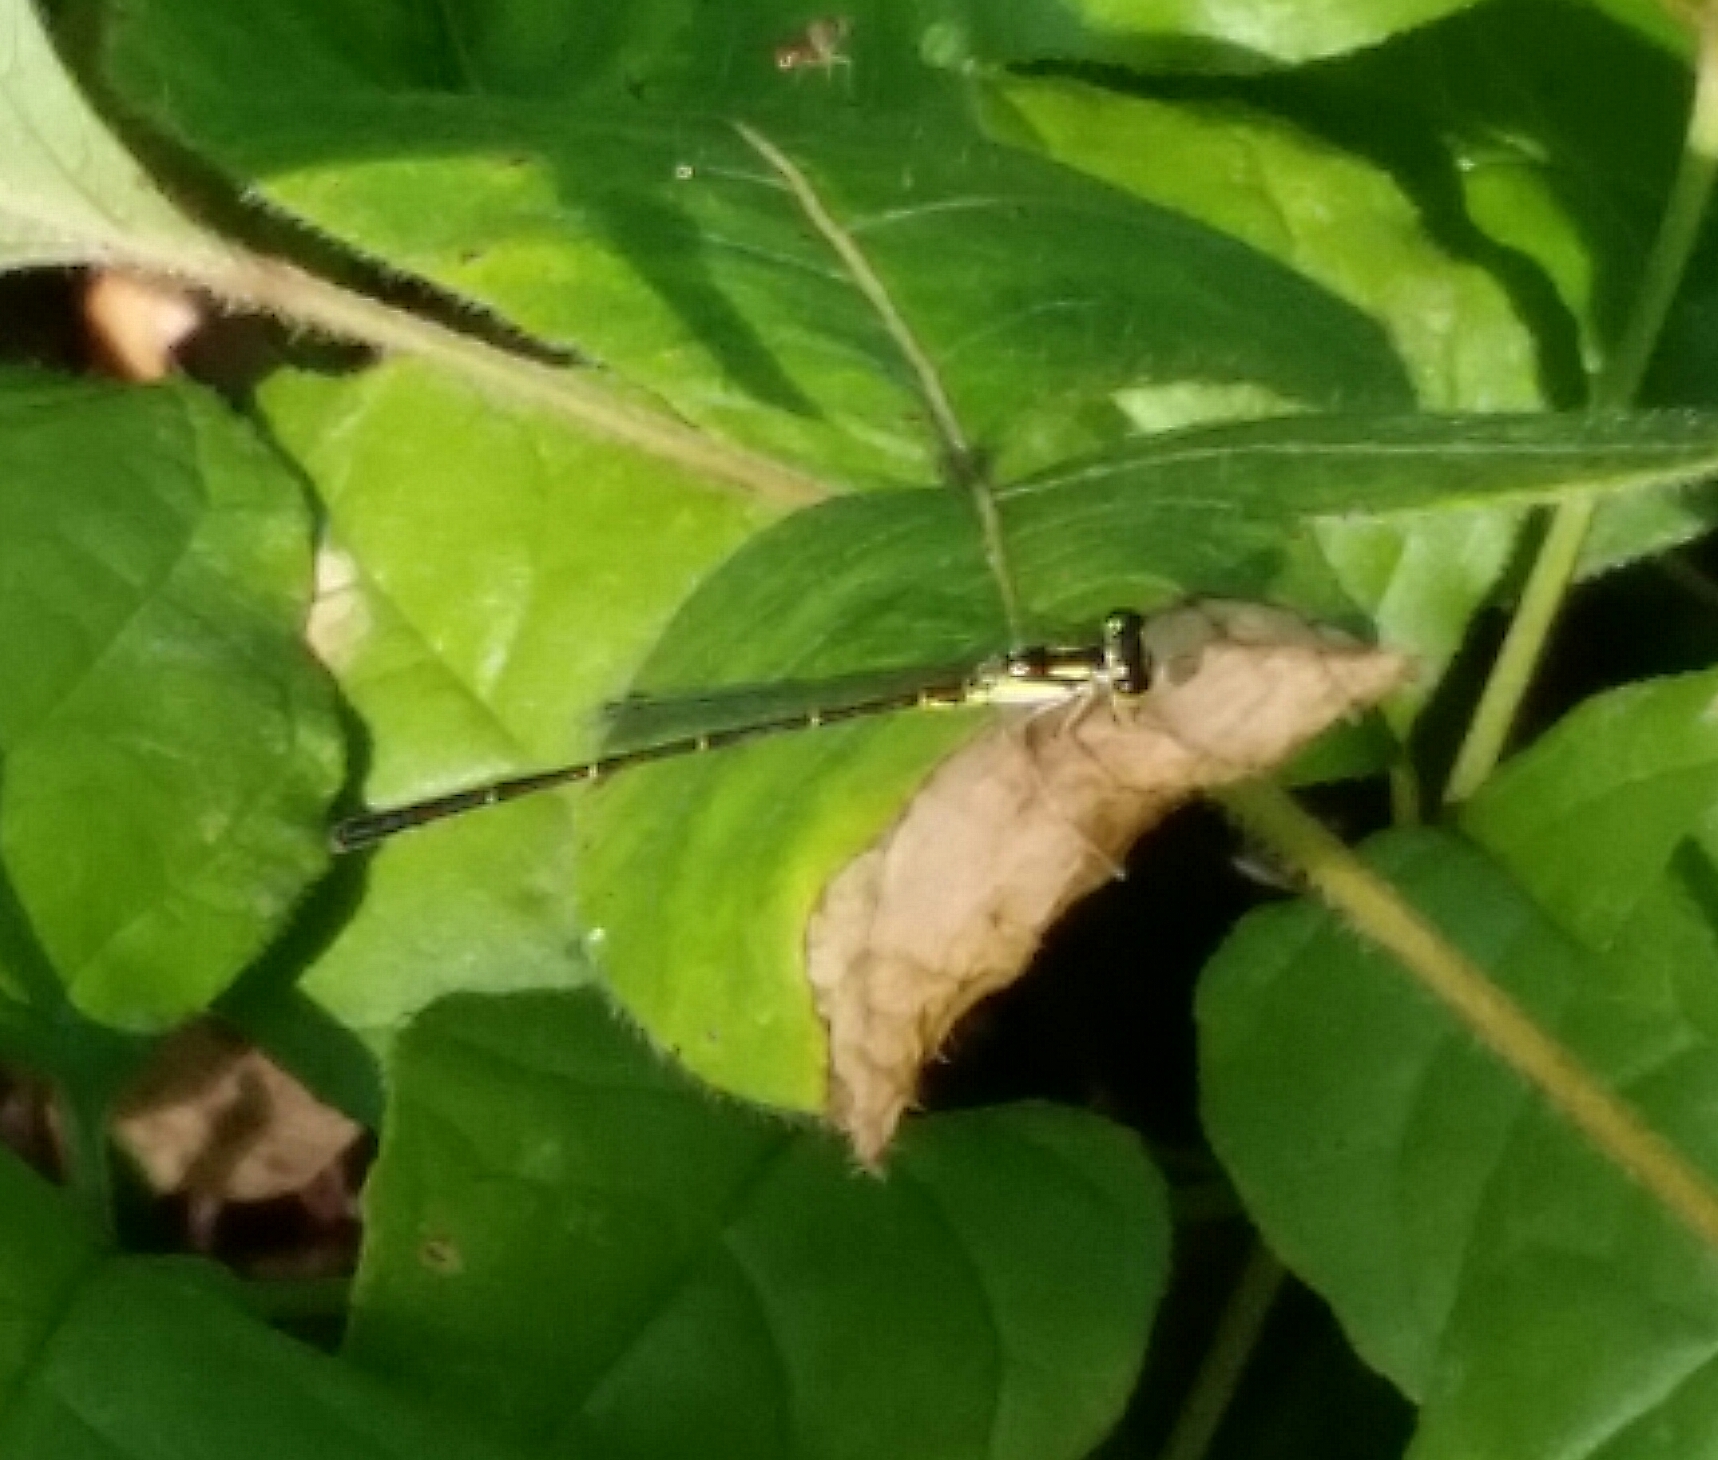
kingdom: Animalia
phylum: Arthropoda
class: Insecta
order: Odonata
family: Coenagrionidae
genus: Ischnura
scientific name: Ischnura posita
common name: Fragile forktail
